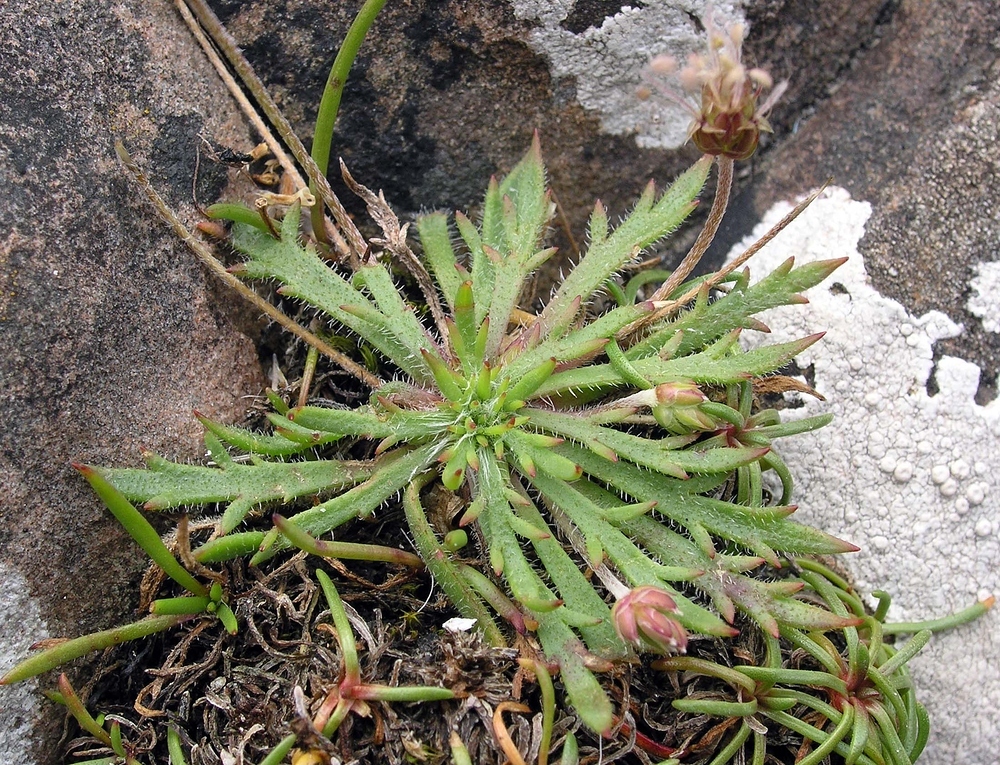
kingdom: Plantae
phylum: Tracheophyta
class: Magnoliopsida
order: Lamiales
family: Plantaginaceae
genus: Plantago
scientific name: Plantago coronopus
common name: Buck's-horn plantain
